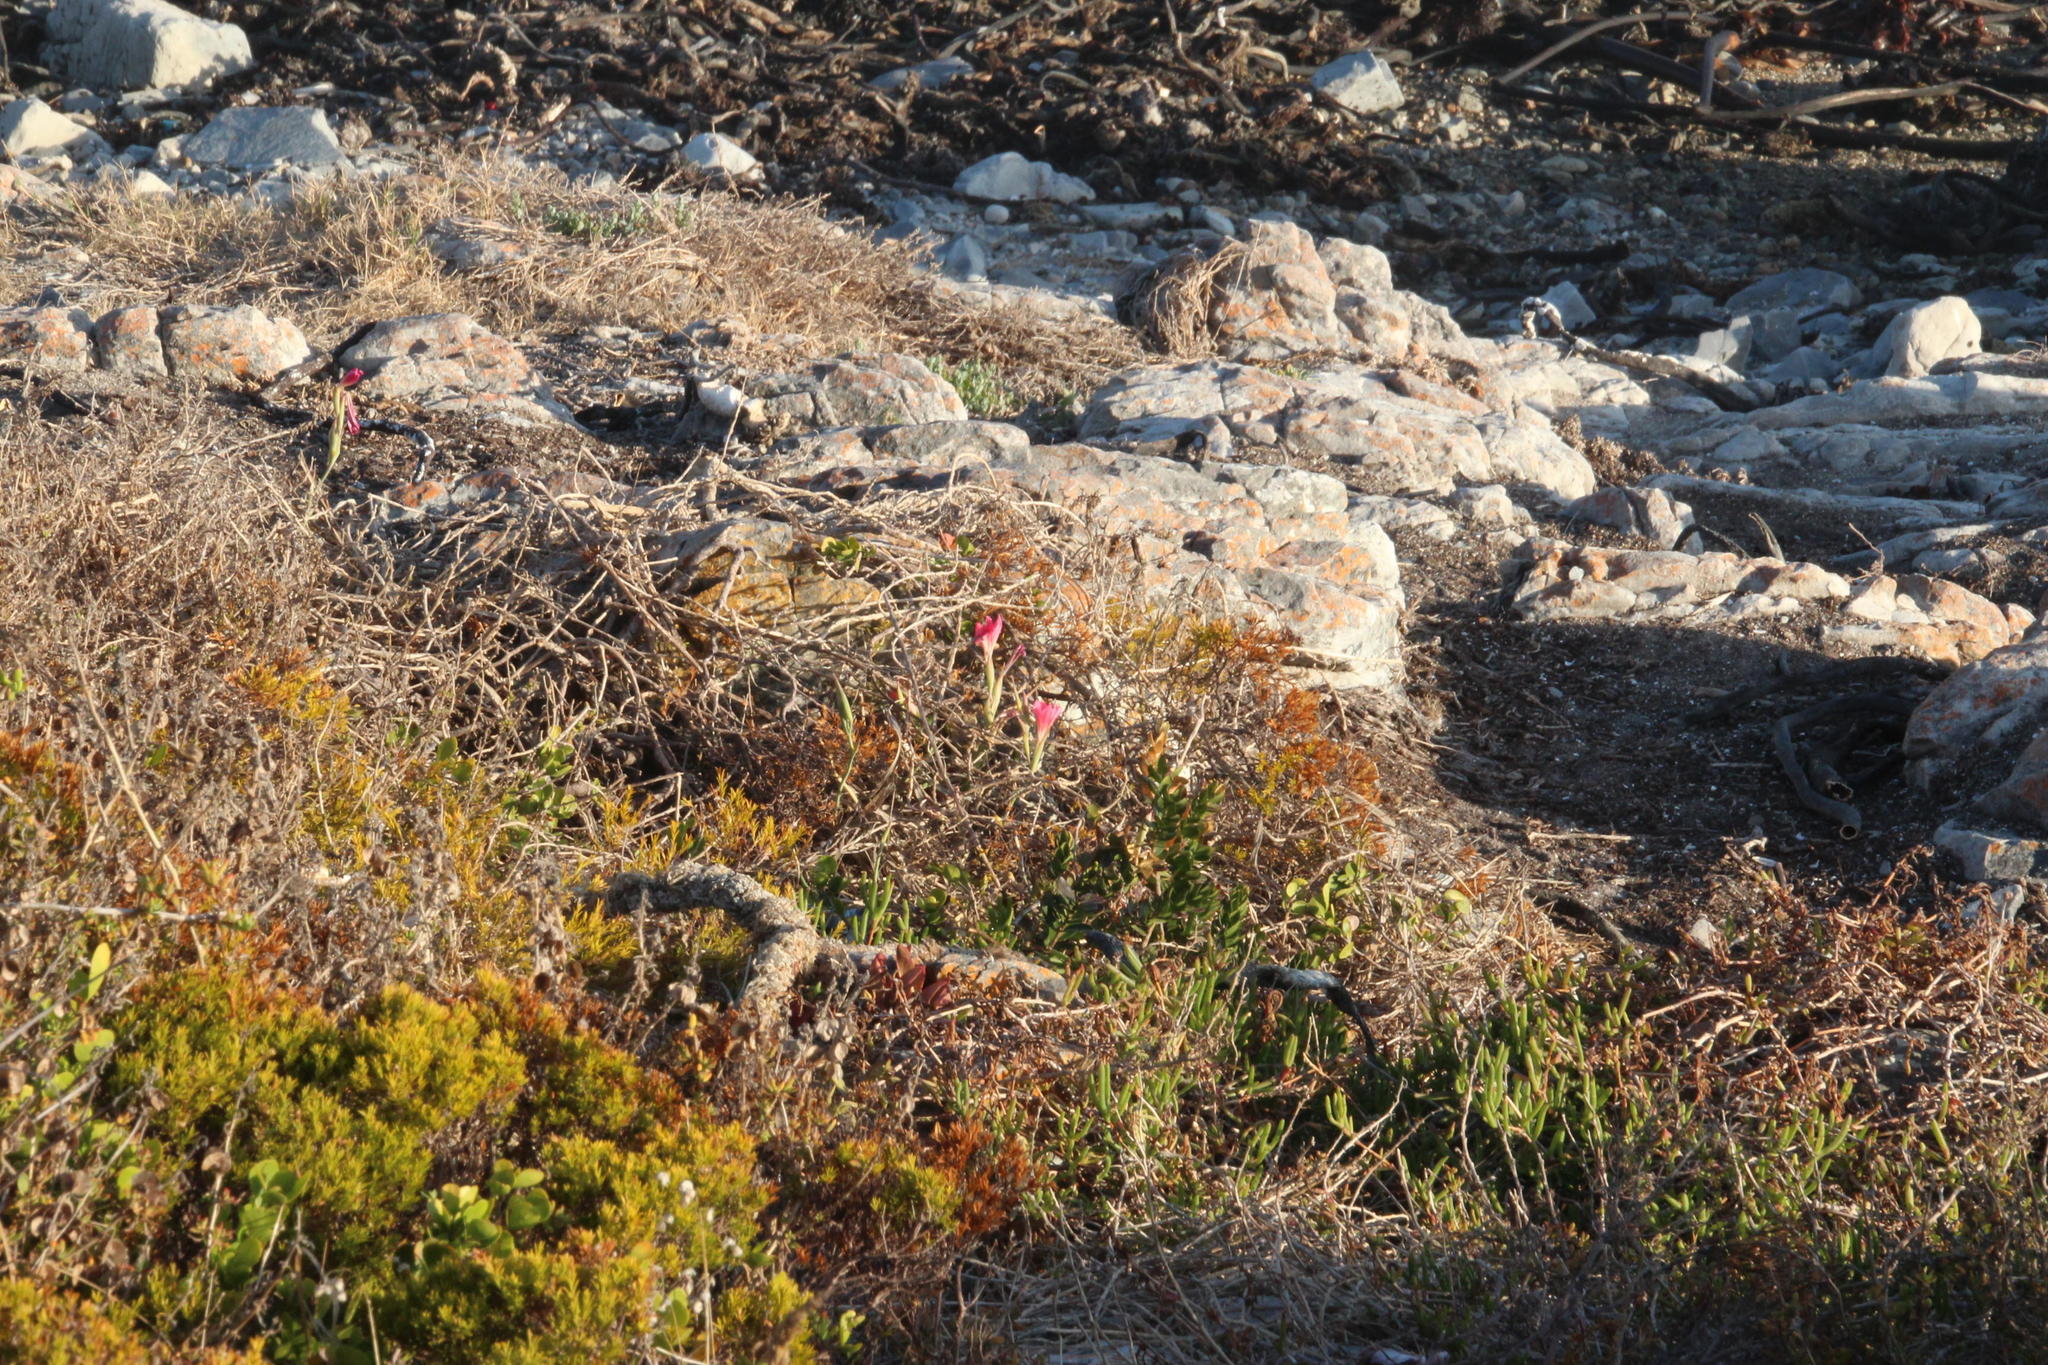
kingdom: Plantae
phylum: Tracheophyta
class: Liliopsida
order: Asparagales
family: Iridaceae
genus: Gladiolus
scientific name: Gladiolus carmineus
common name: Hermanus gladiolus
